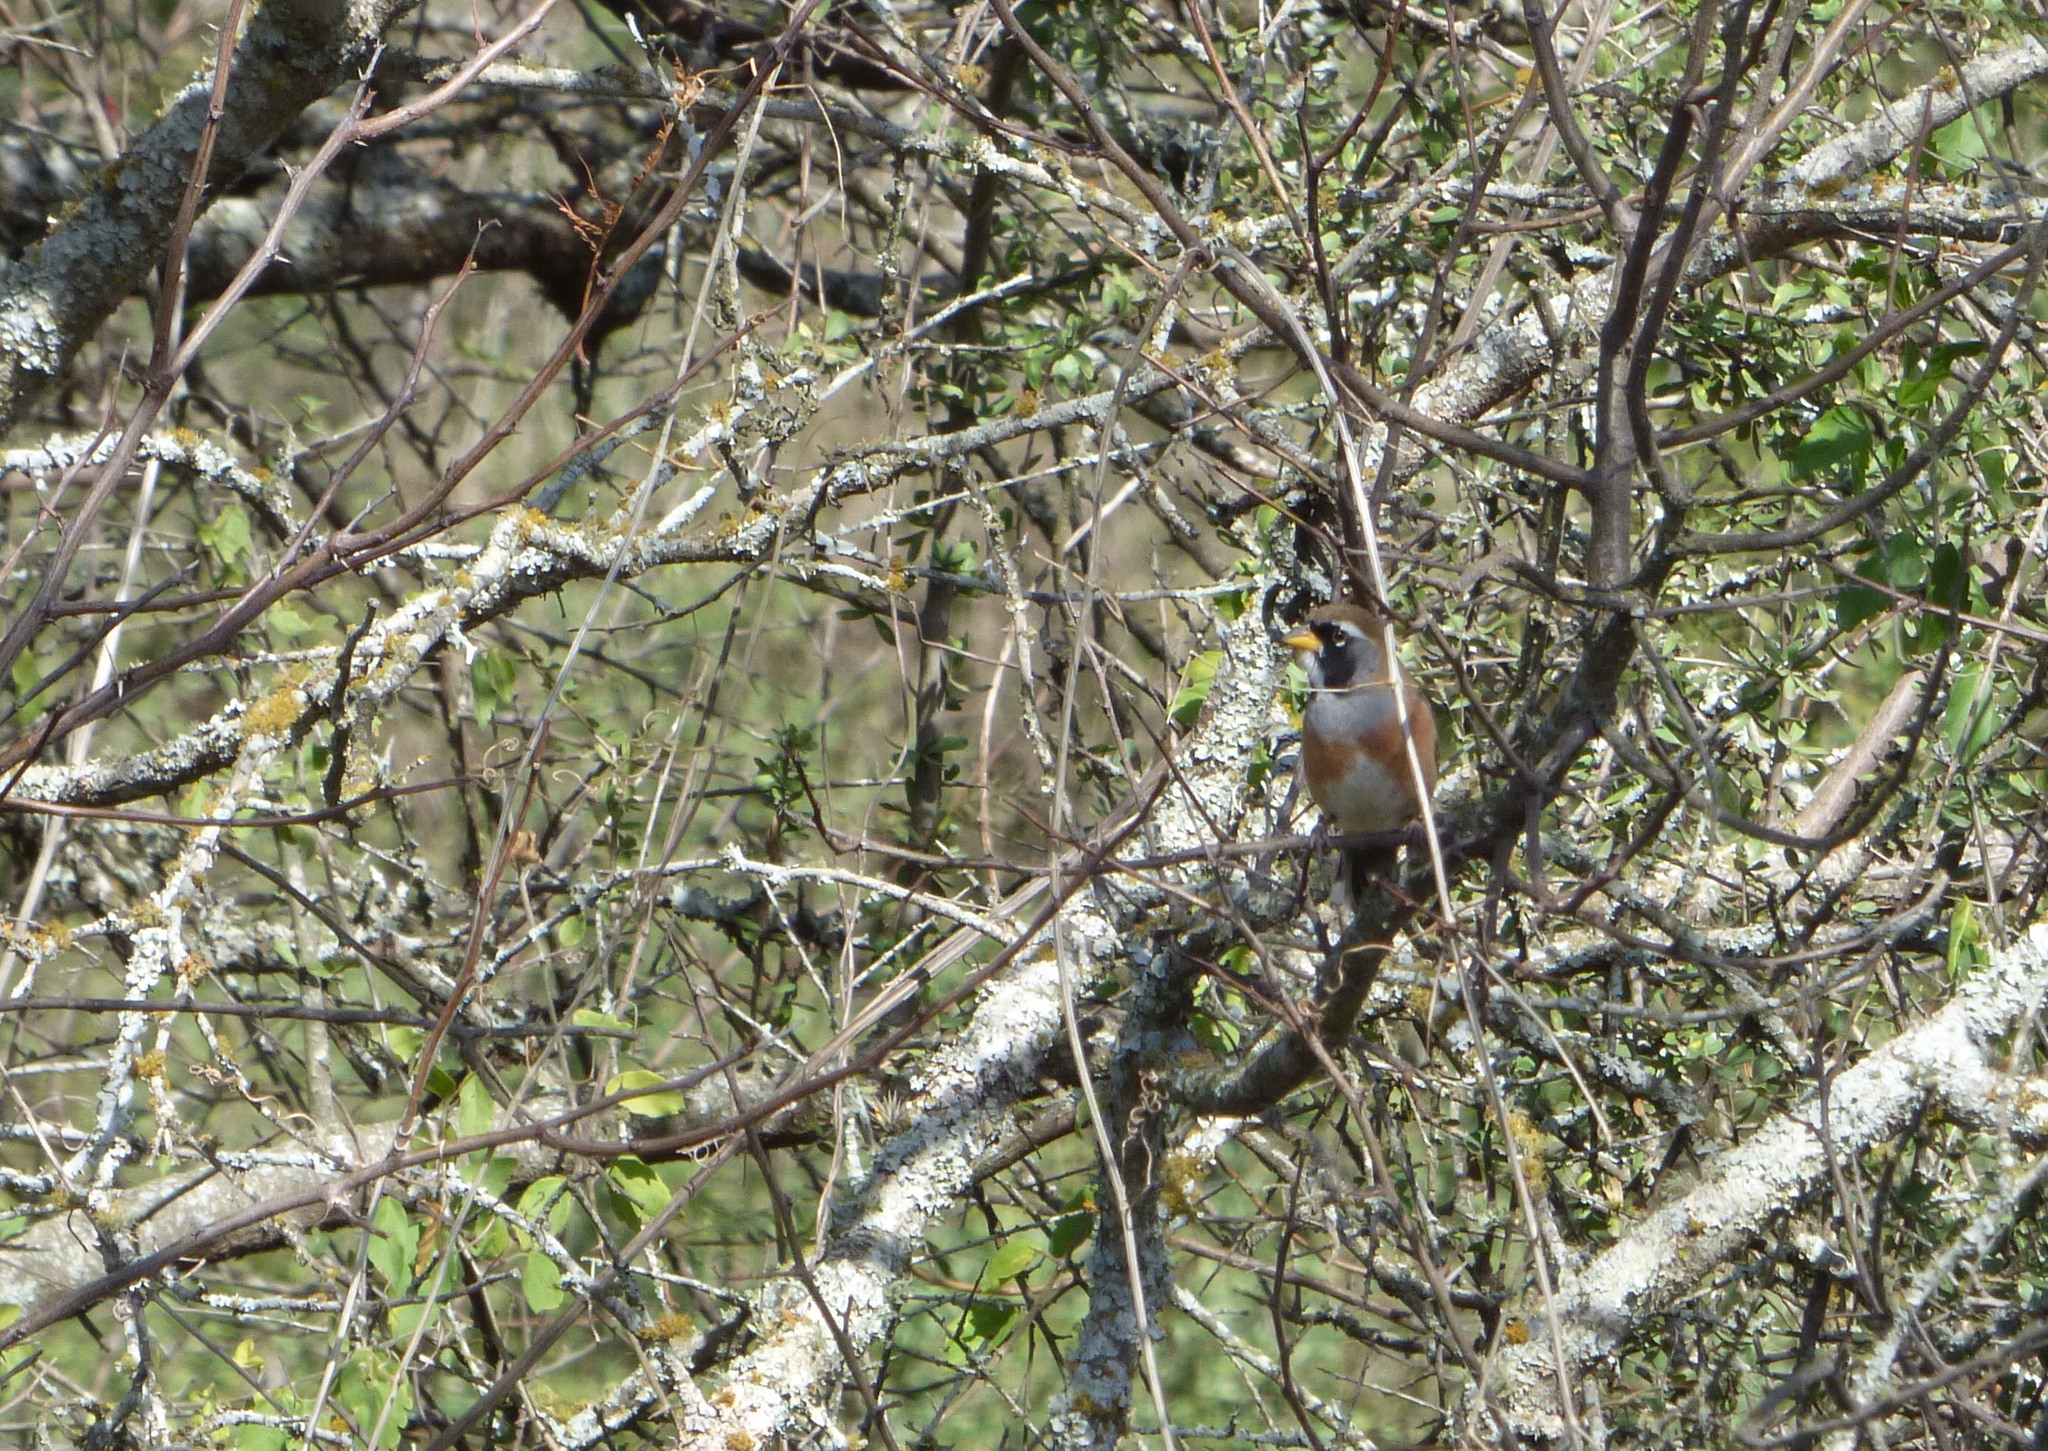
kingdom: Animalia
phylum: Chordata
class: Aves
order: Passeriformes
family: Thraupidae
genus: Saltatricula
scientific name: Saltatricula multicolor
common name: Many-colored chaco finch
